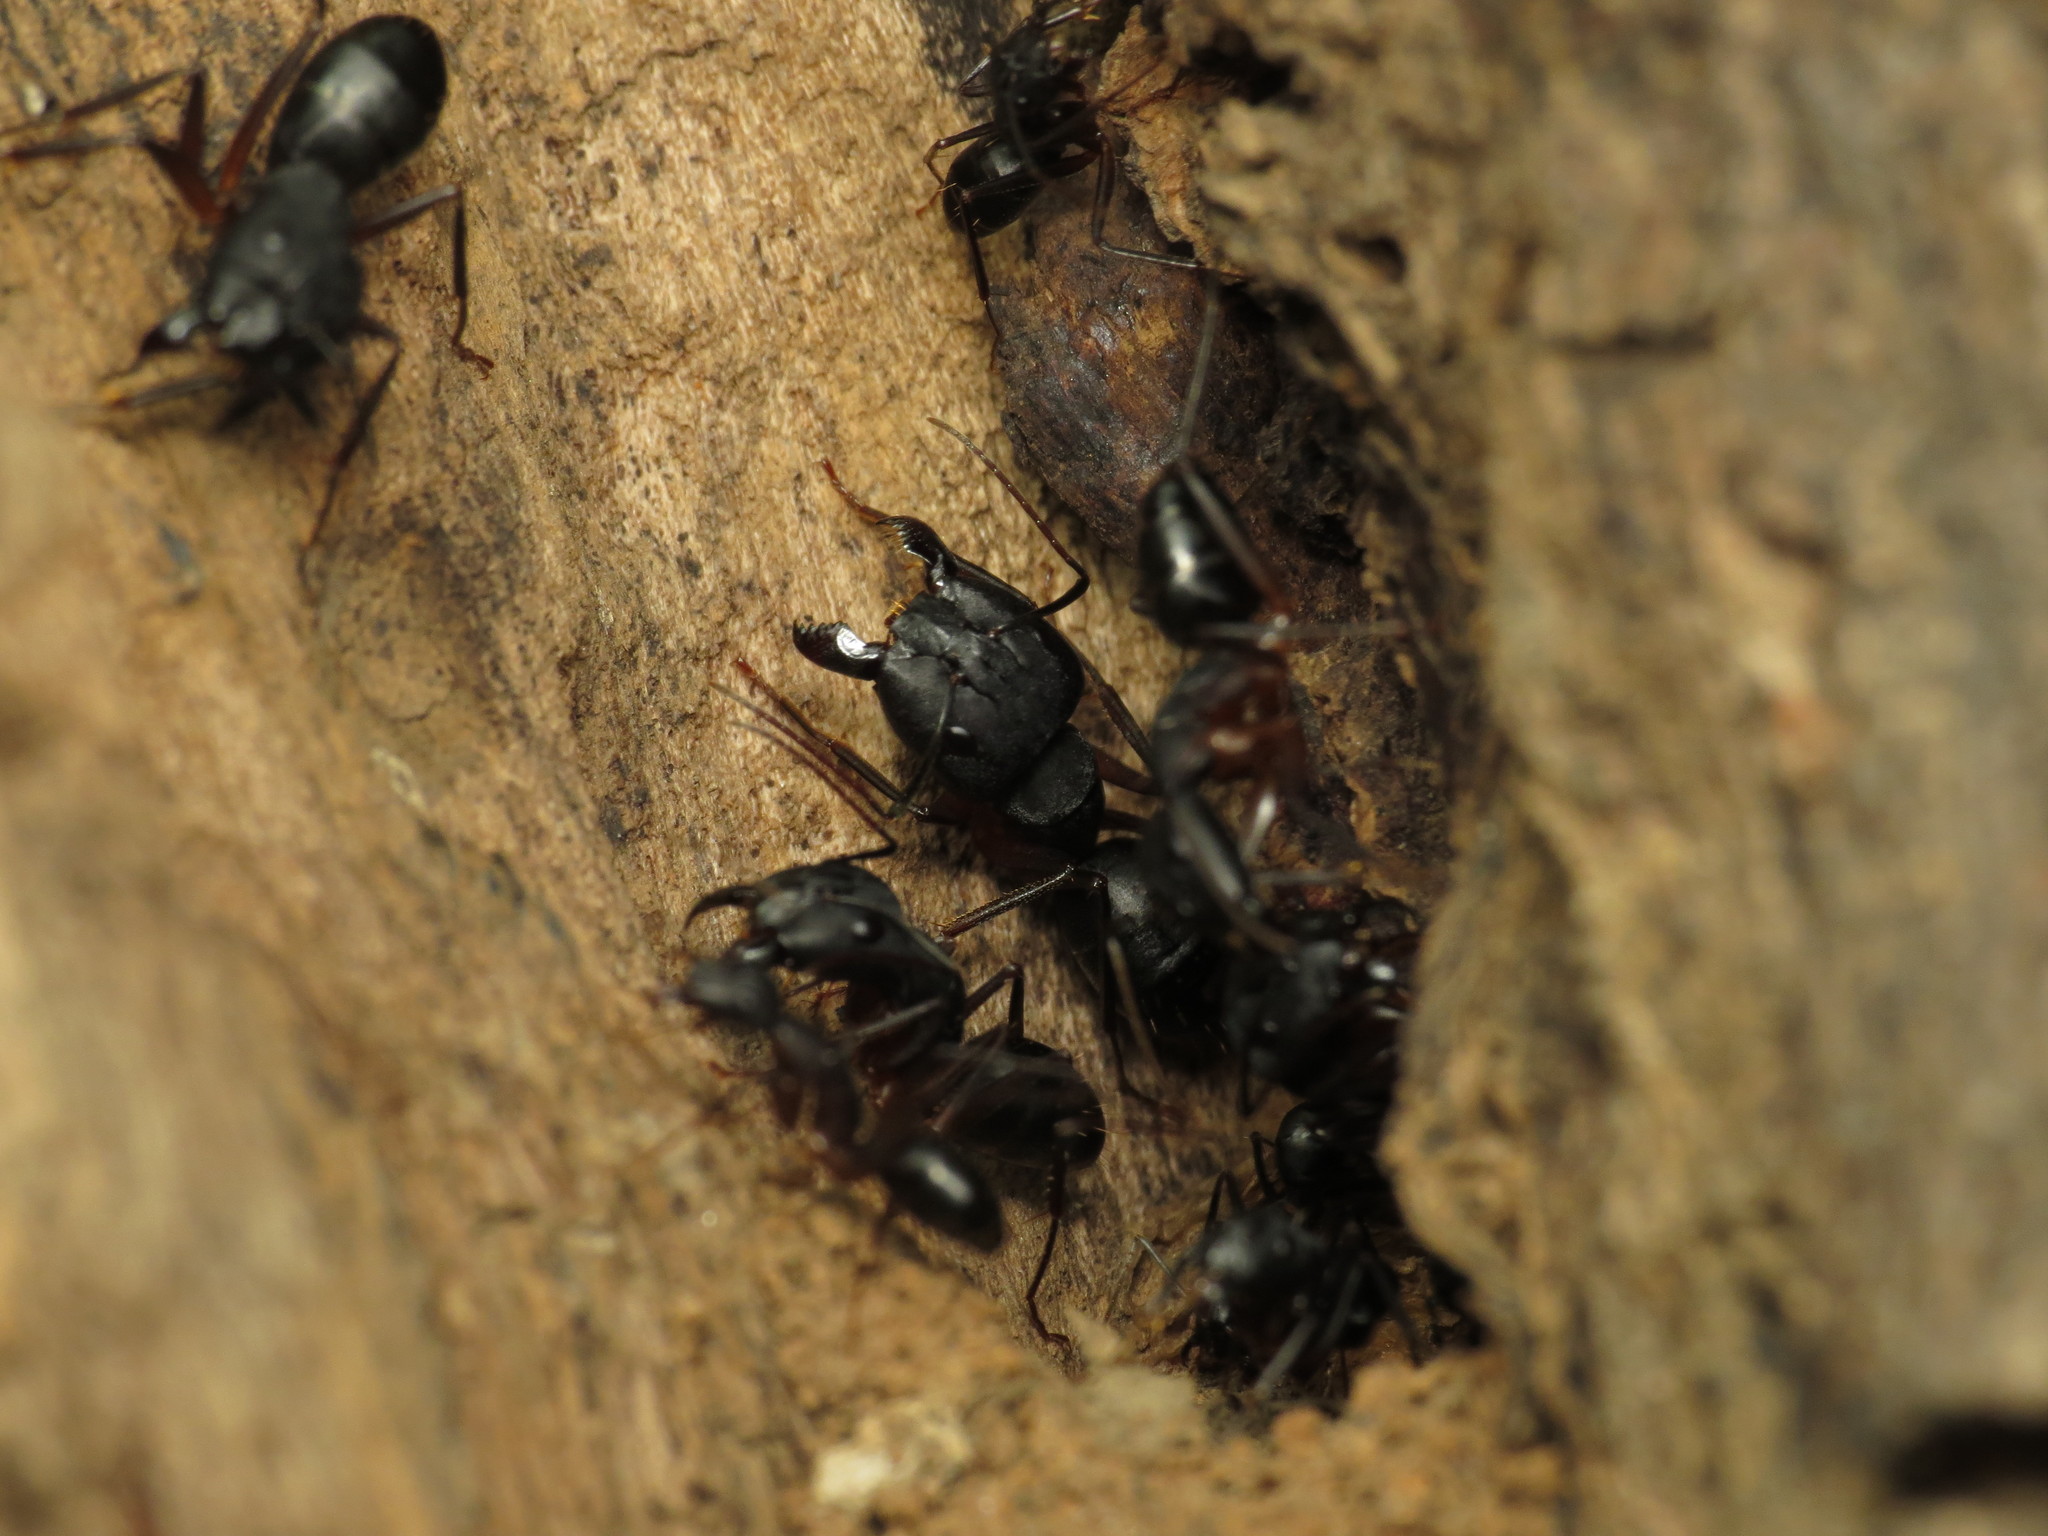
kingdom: Animalia
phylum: Arthropoda
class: Insecta
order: Hymenoptera
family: Formicidae
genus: Camponotus
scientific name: Camponotus compressus
